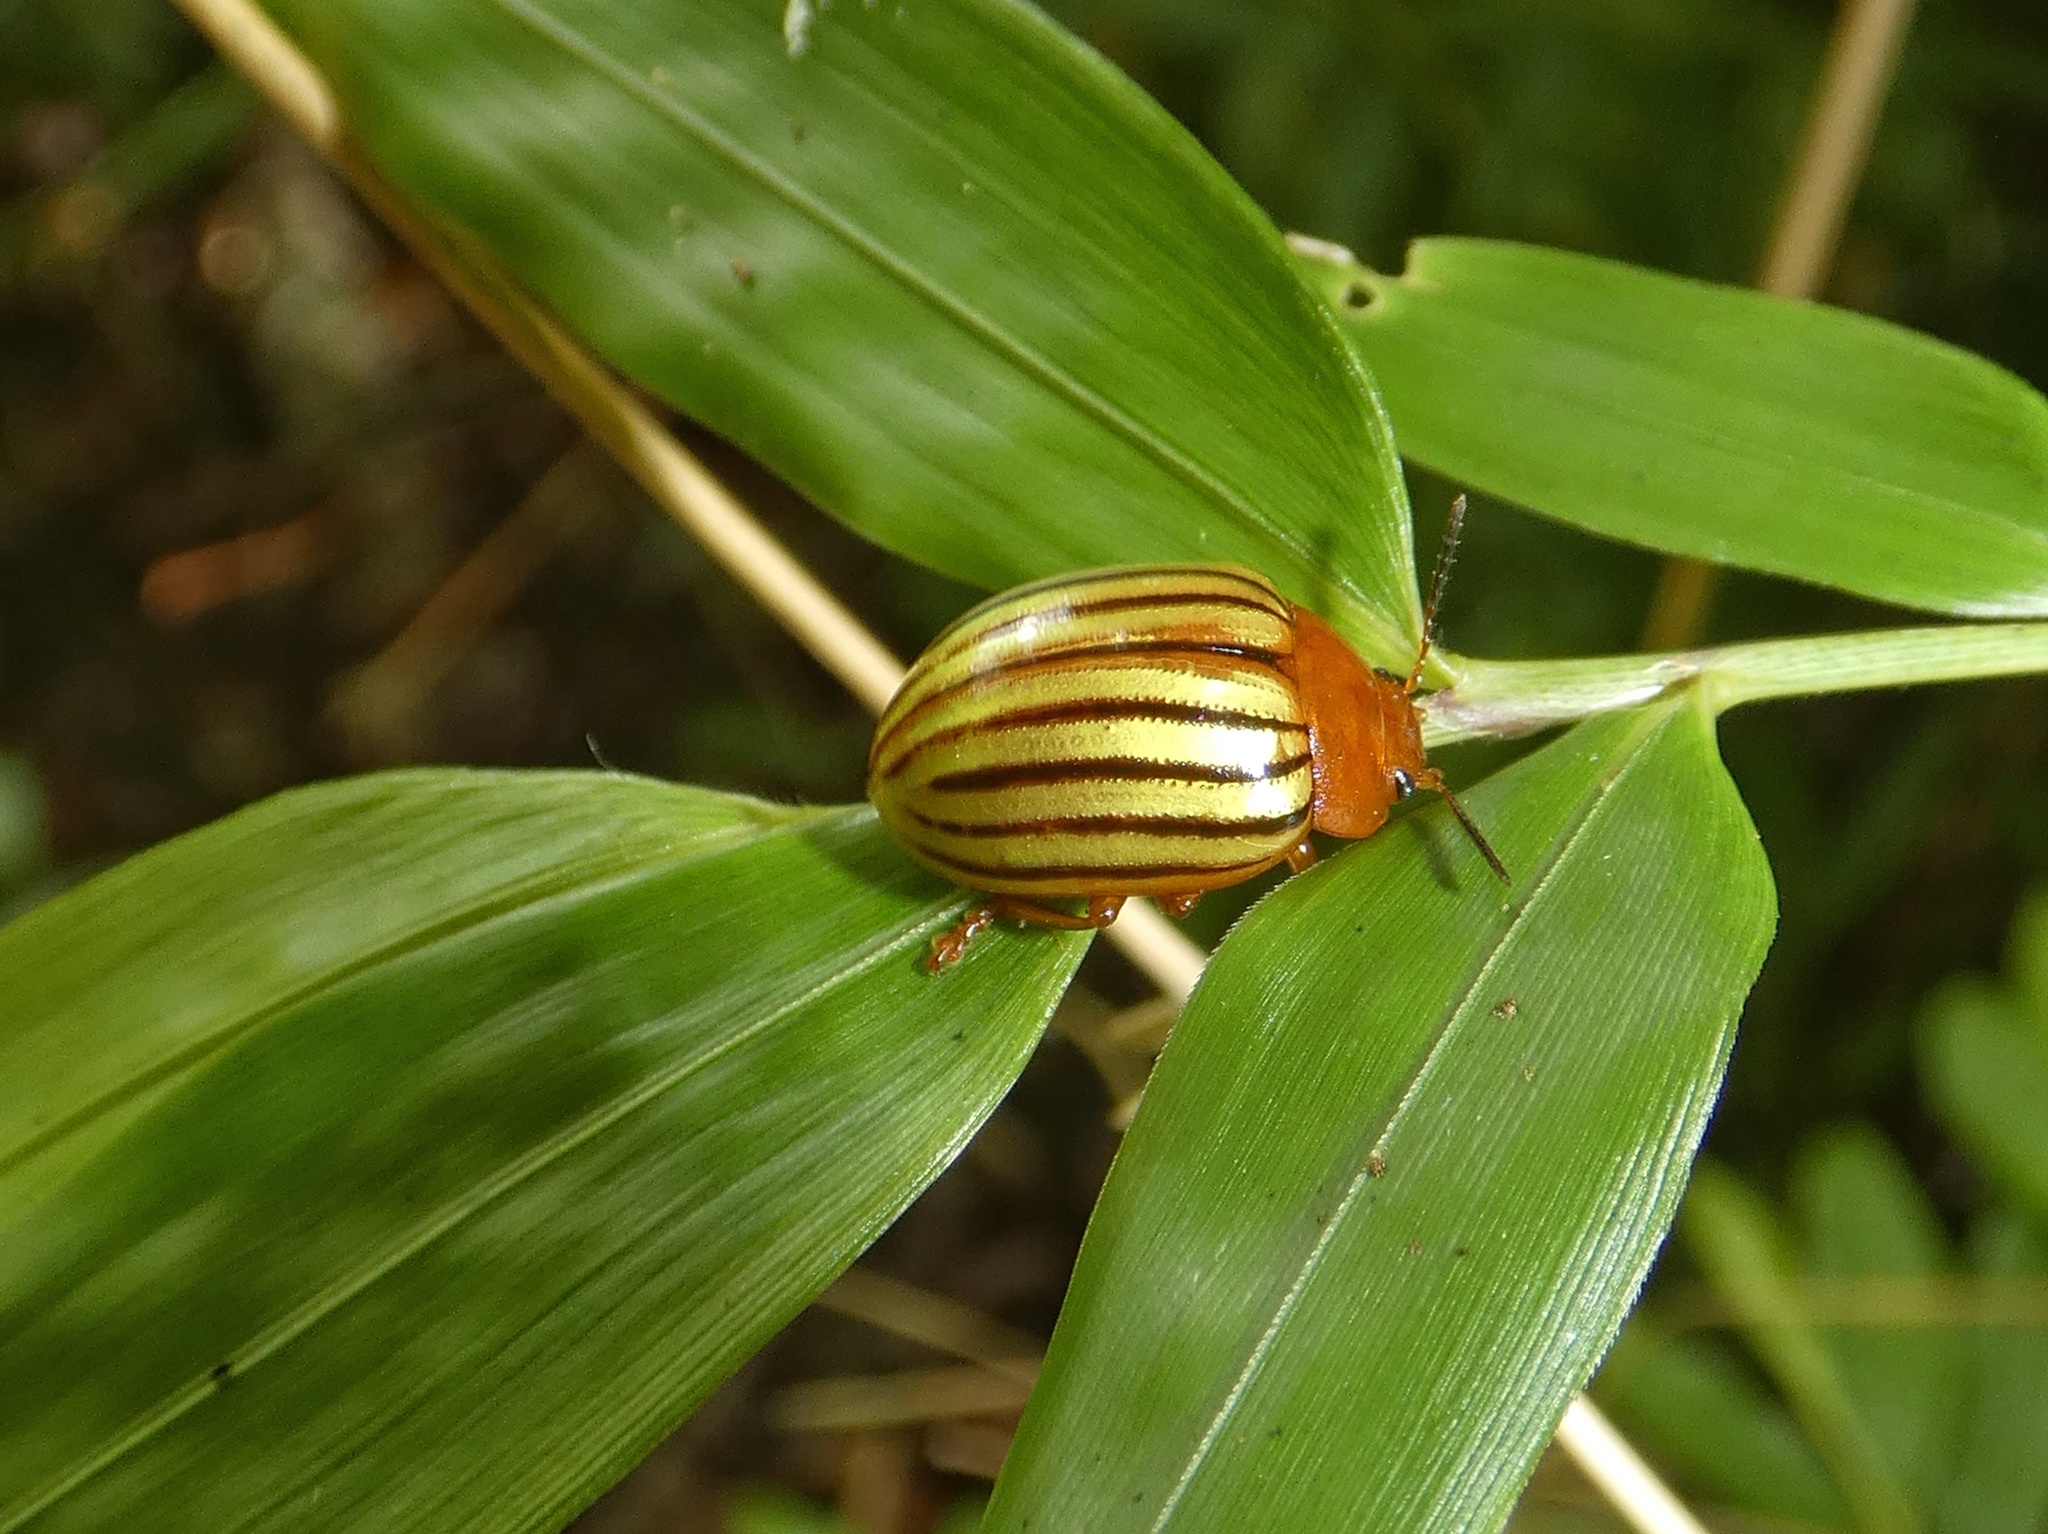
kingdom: Animalia
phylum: Arthropoda
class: Insecta
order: Coleoptera
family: Chrysomelidae
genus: Stilodes
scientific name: Stilodes
